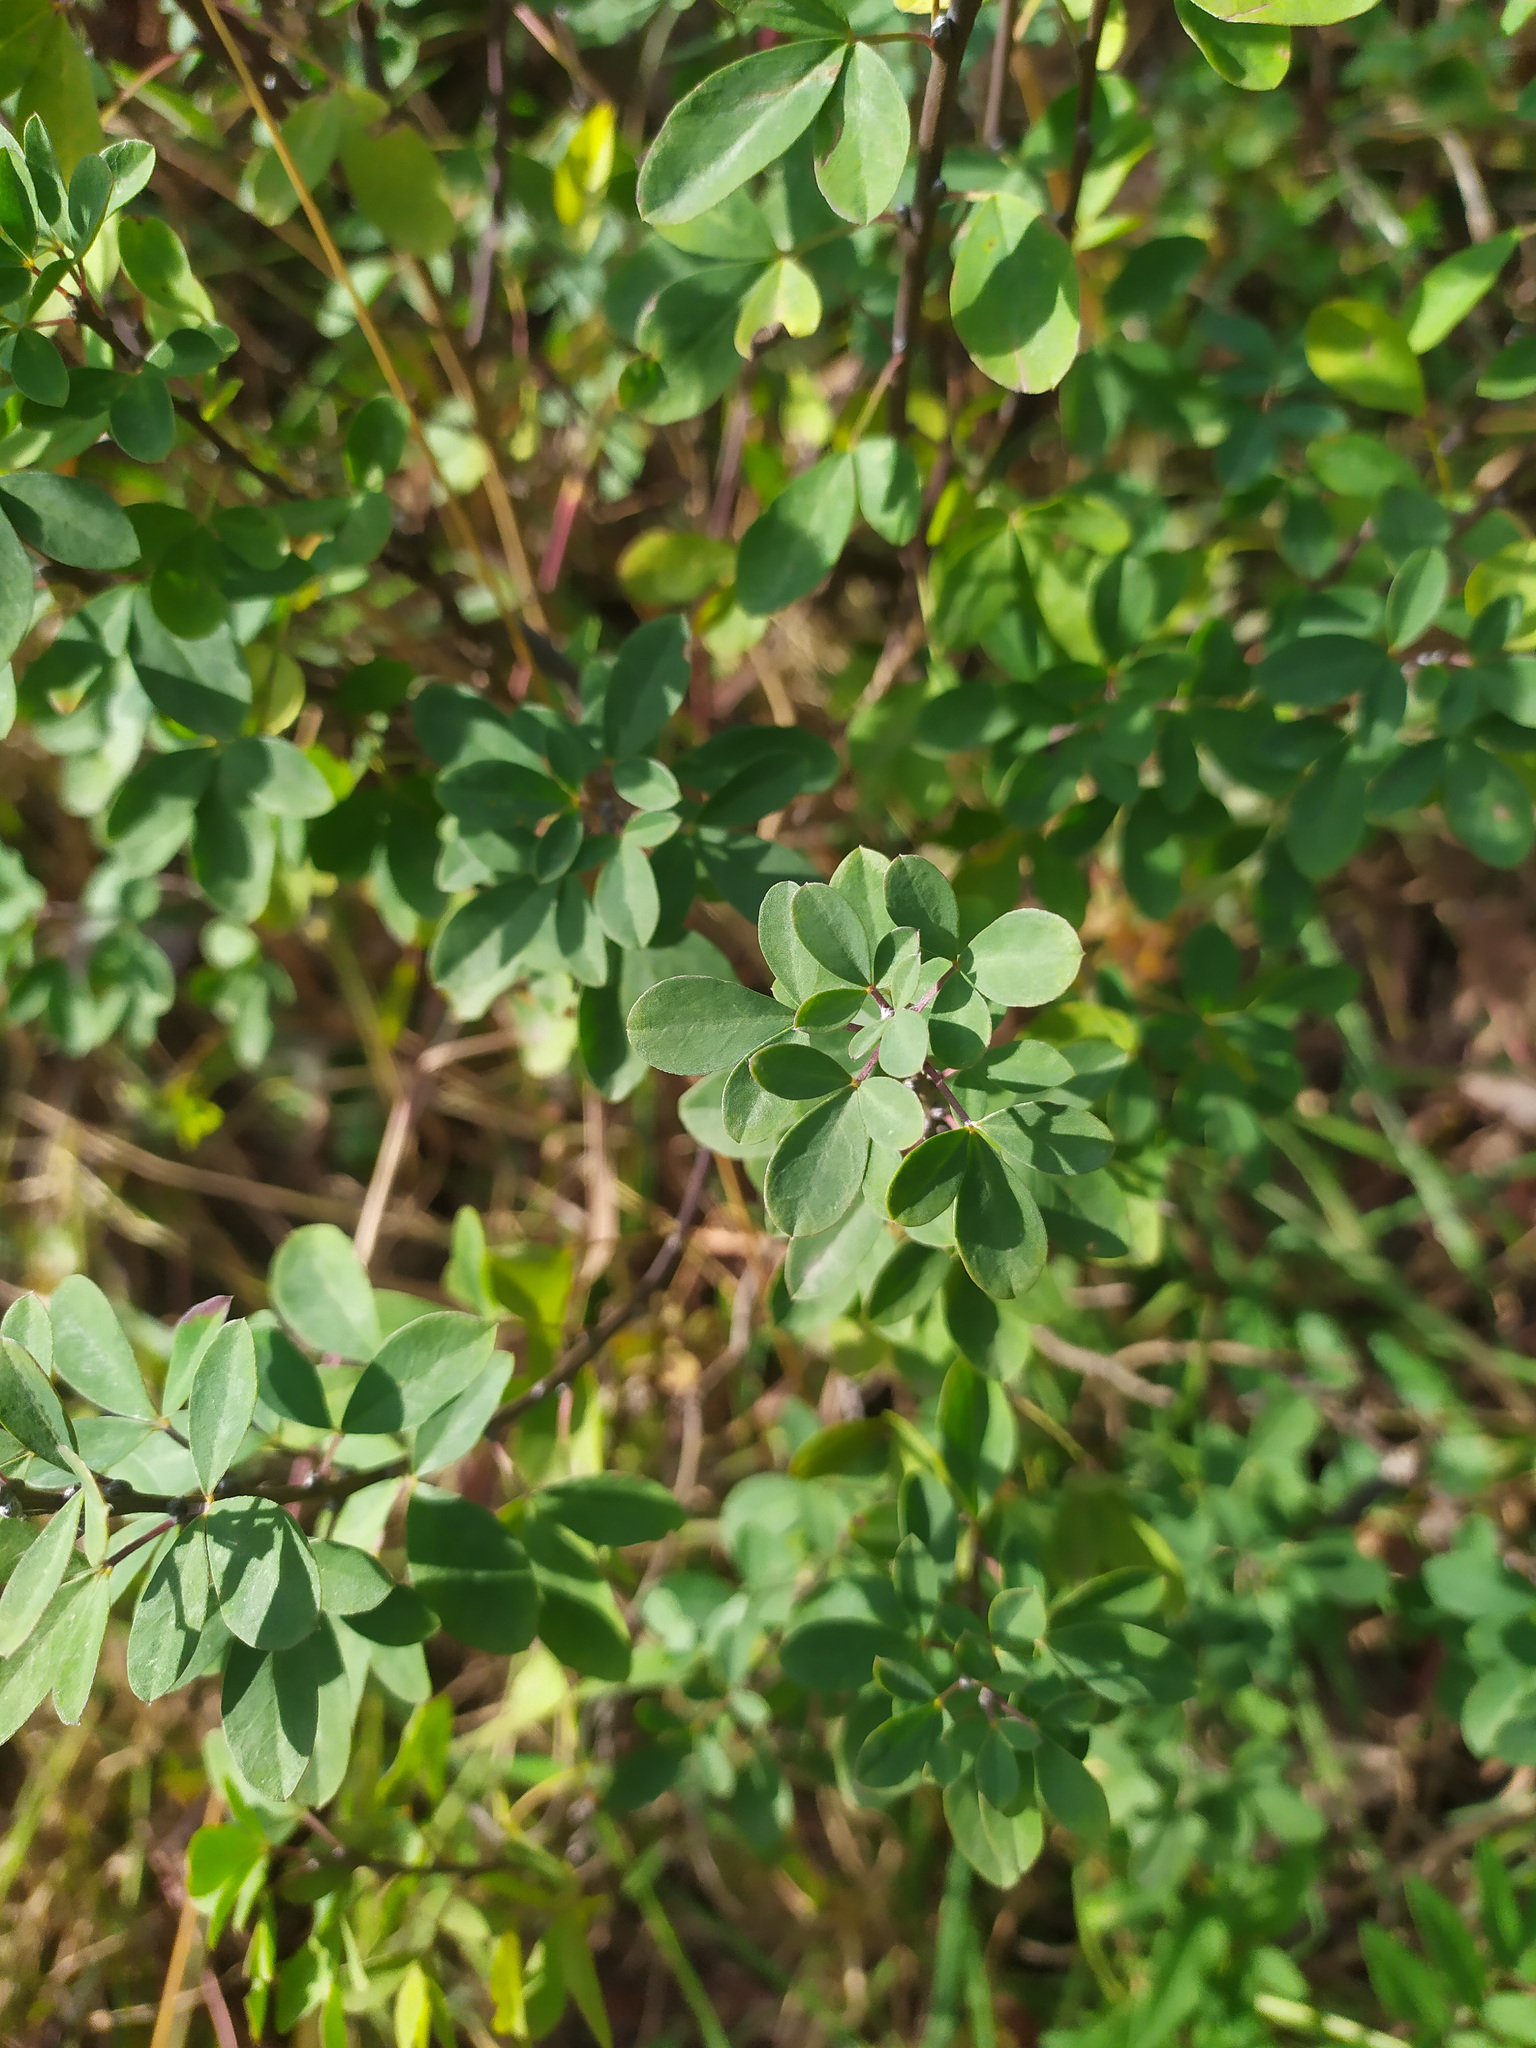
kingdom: Plantae
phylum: Tracheophyta
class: Magnoliopsida
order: Fabales
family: Fabaceae
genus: Chamaecytisus
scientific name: Chamaecytisus ruthenicus
